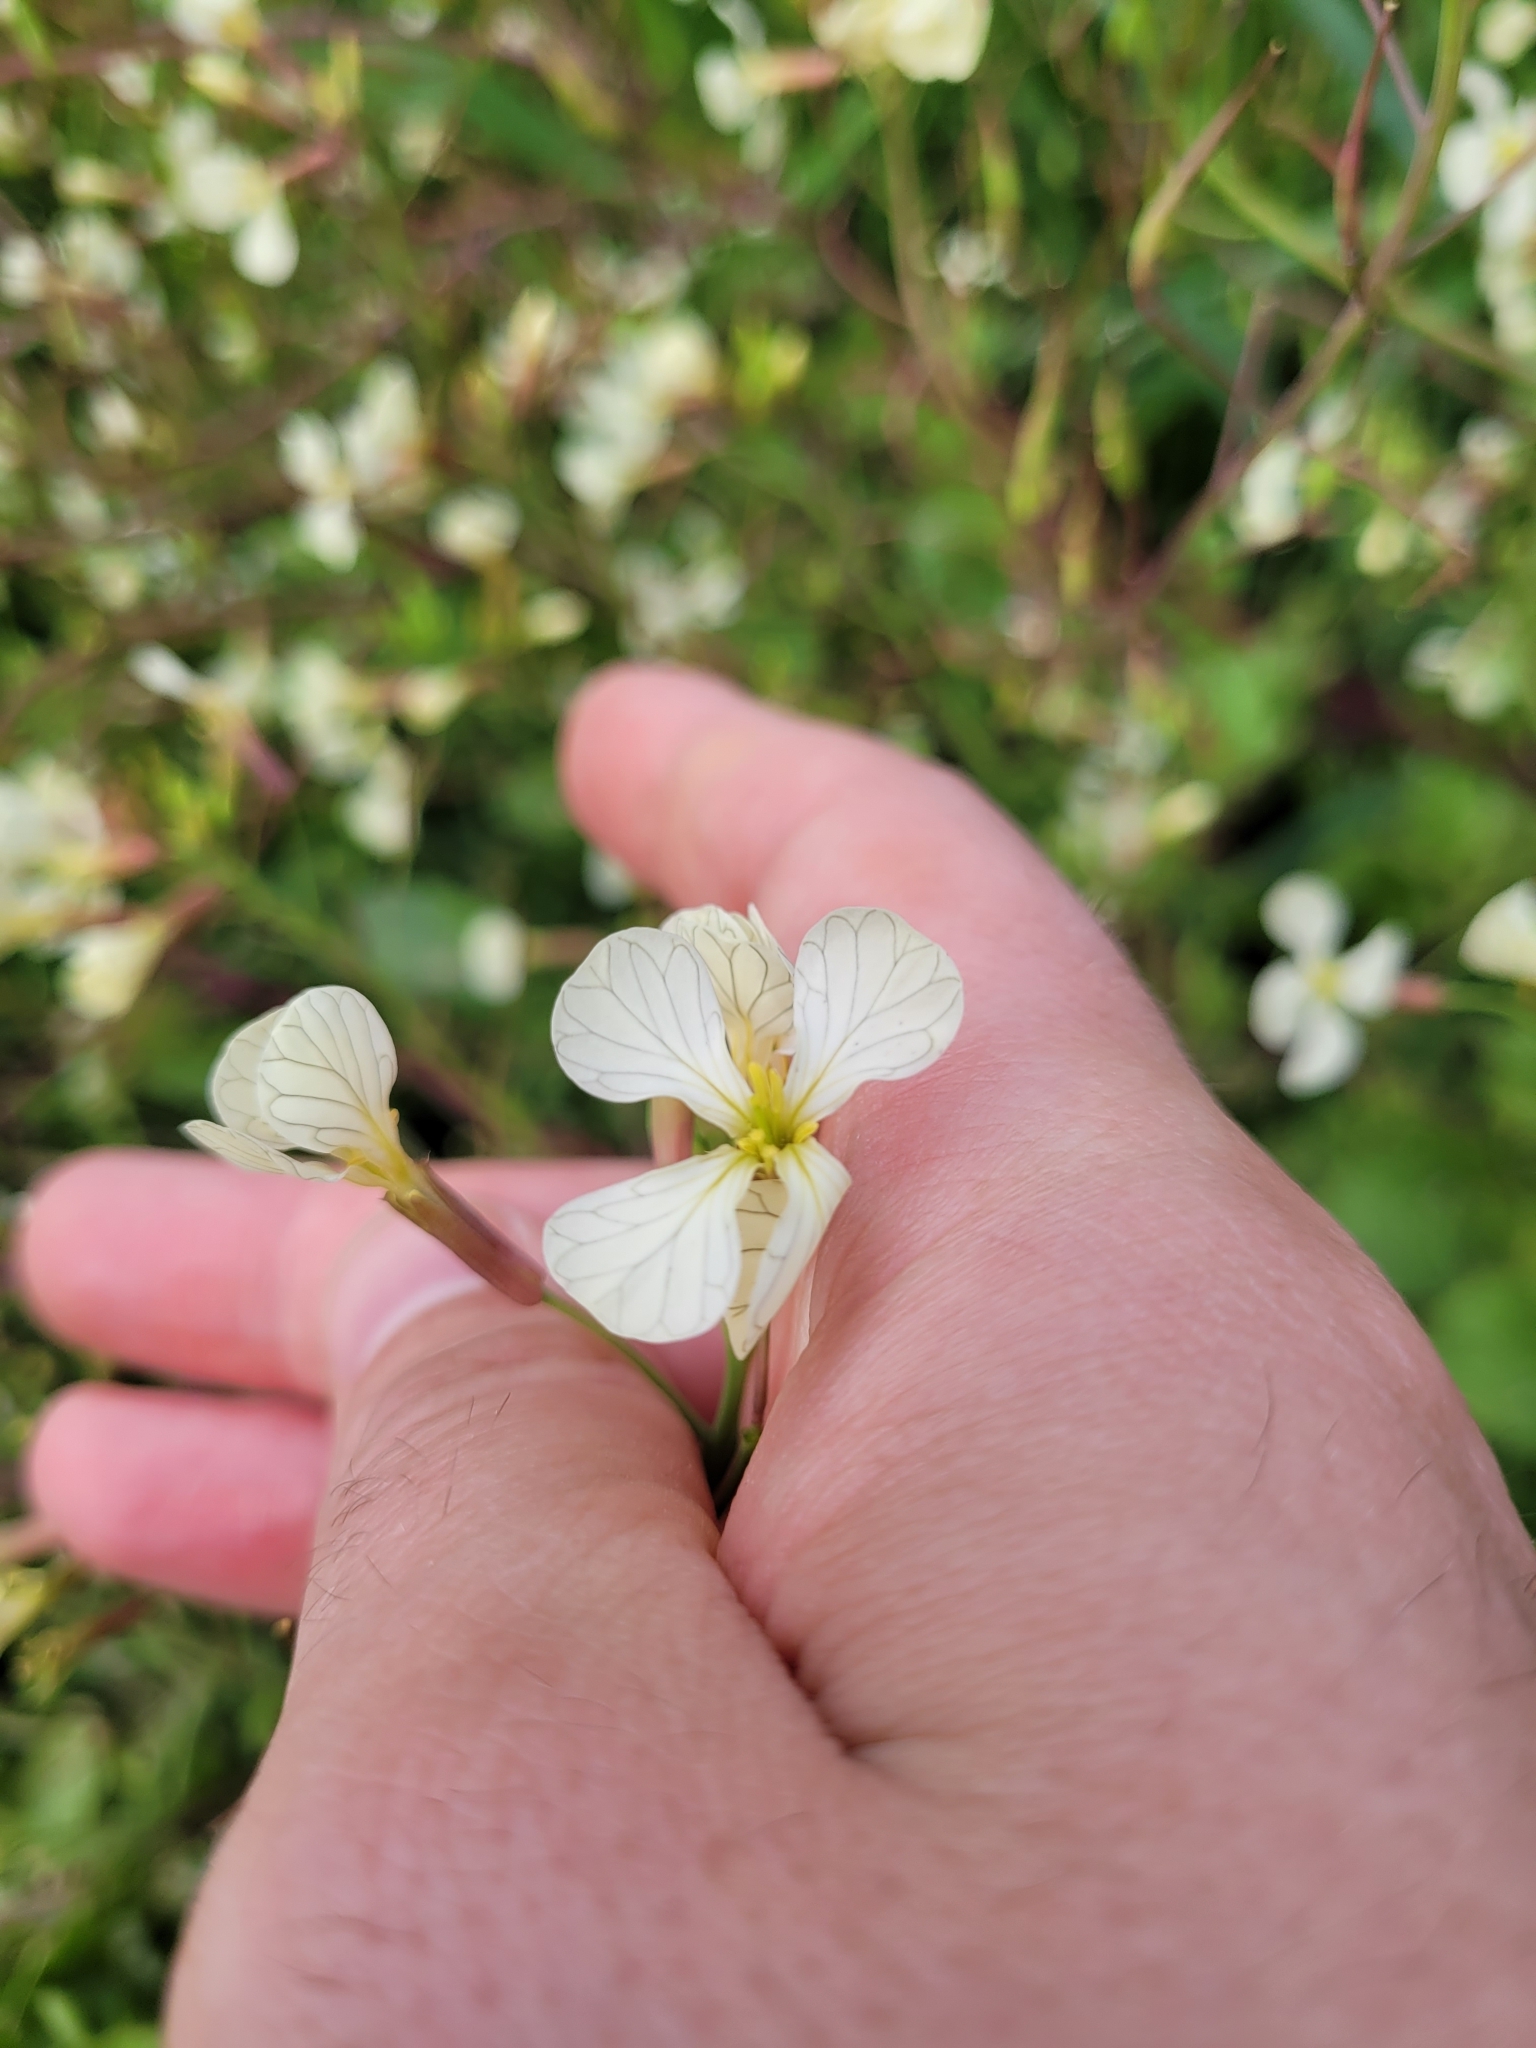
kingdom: Plantae
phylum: Tracheophyta
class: Magnoliopsida
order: Brassicales
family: Brassicaceae
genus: Raphanus
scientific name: Raphanus raphanistrum
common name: Wild radish
